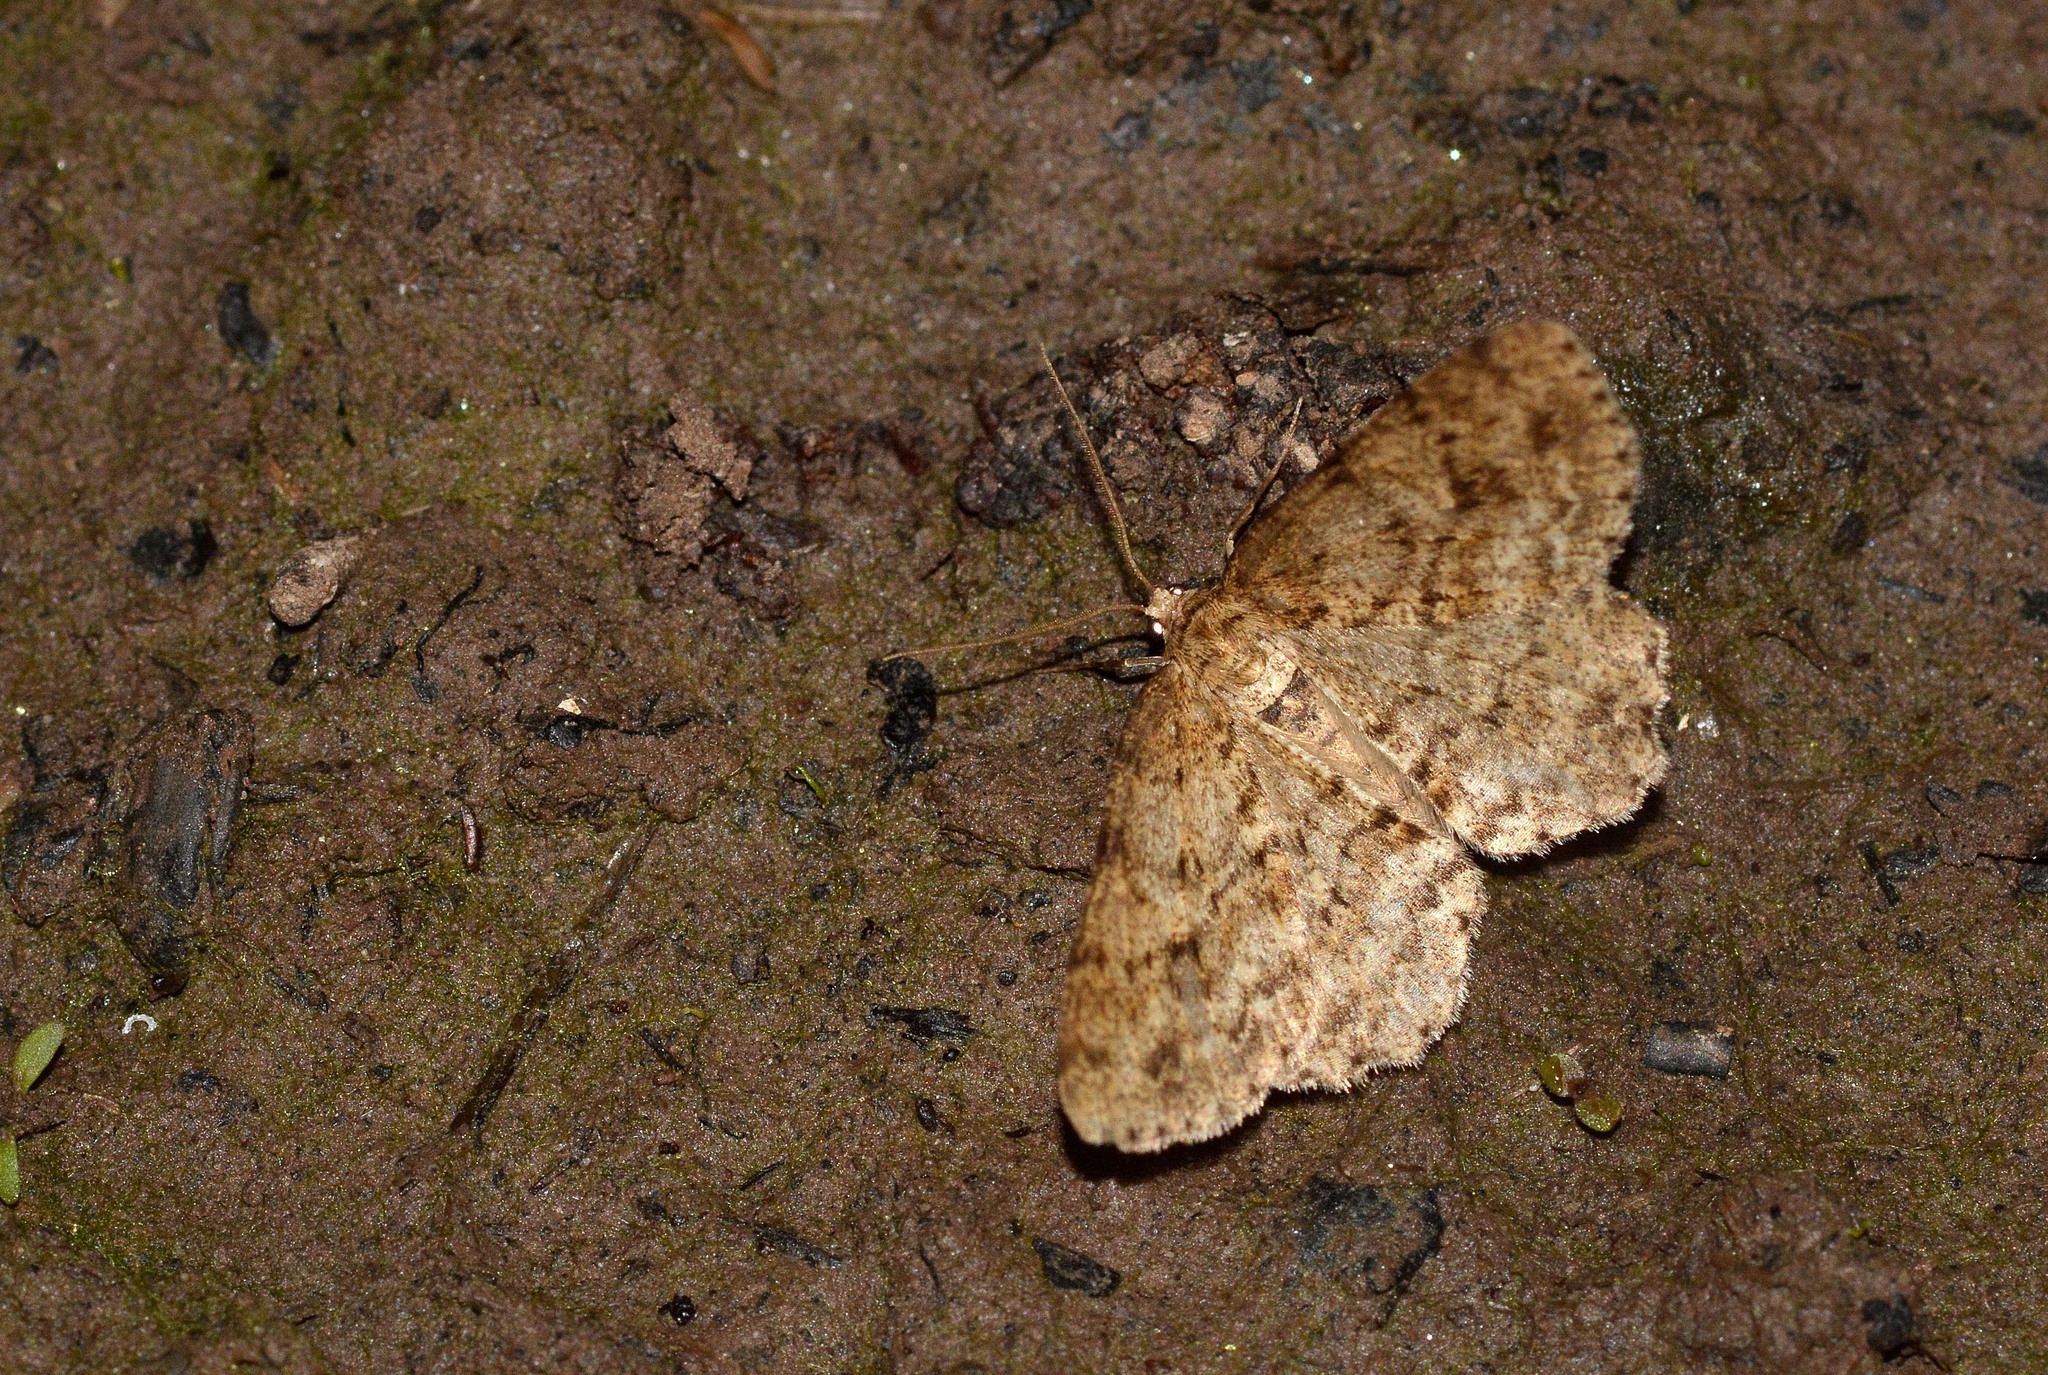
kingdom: Animalia
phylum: Arthropoda
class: Insecta
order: Lepidoptera
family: Geometridae
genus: Ectropis
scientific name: Ectropis crepuscularia
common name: Engrailed
